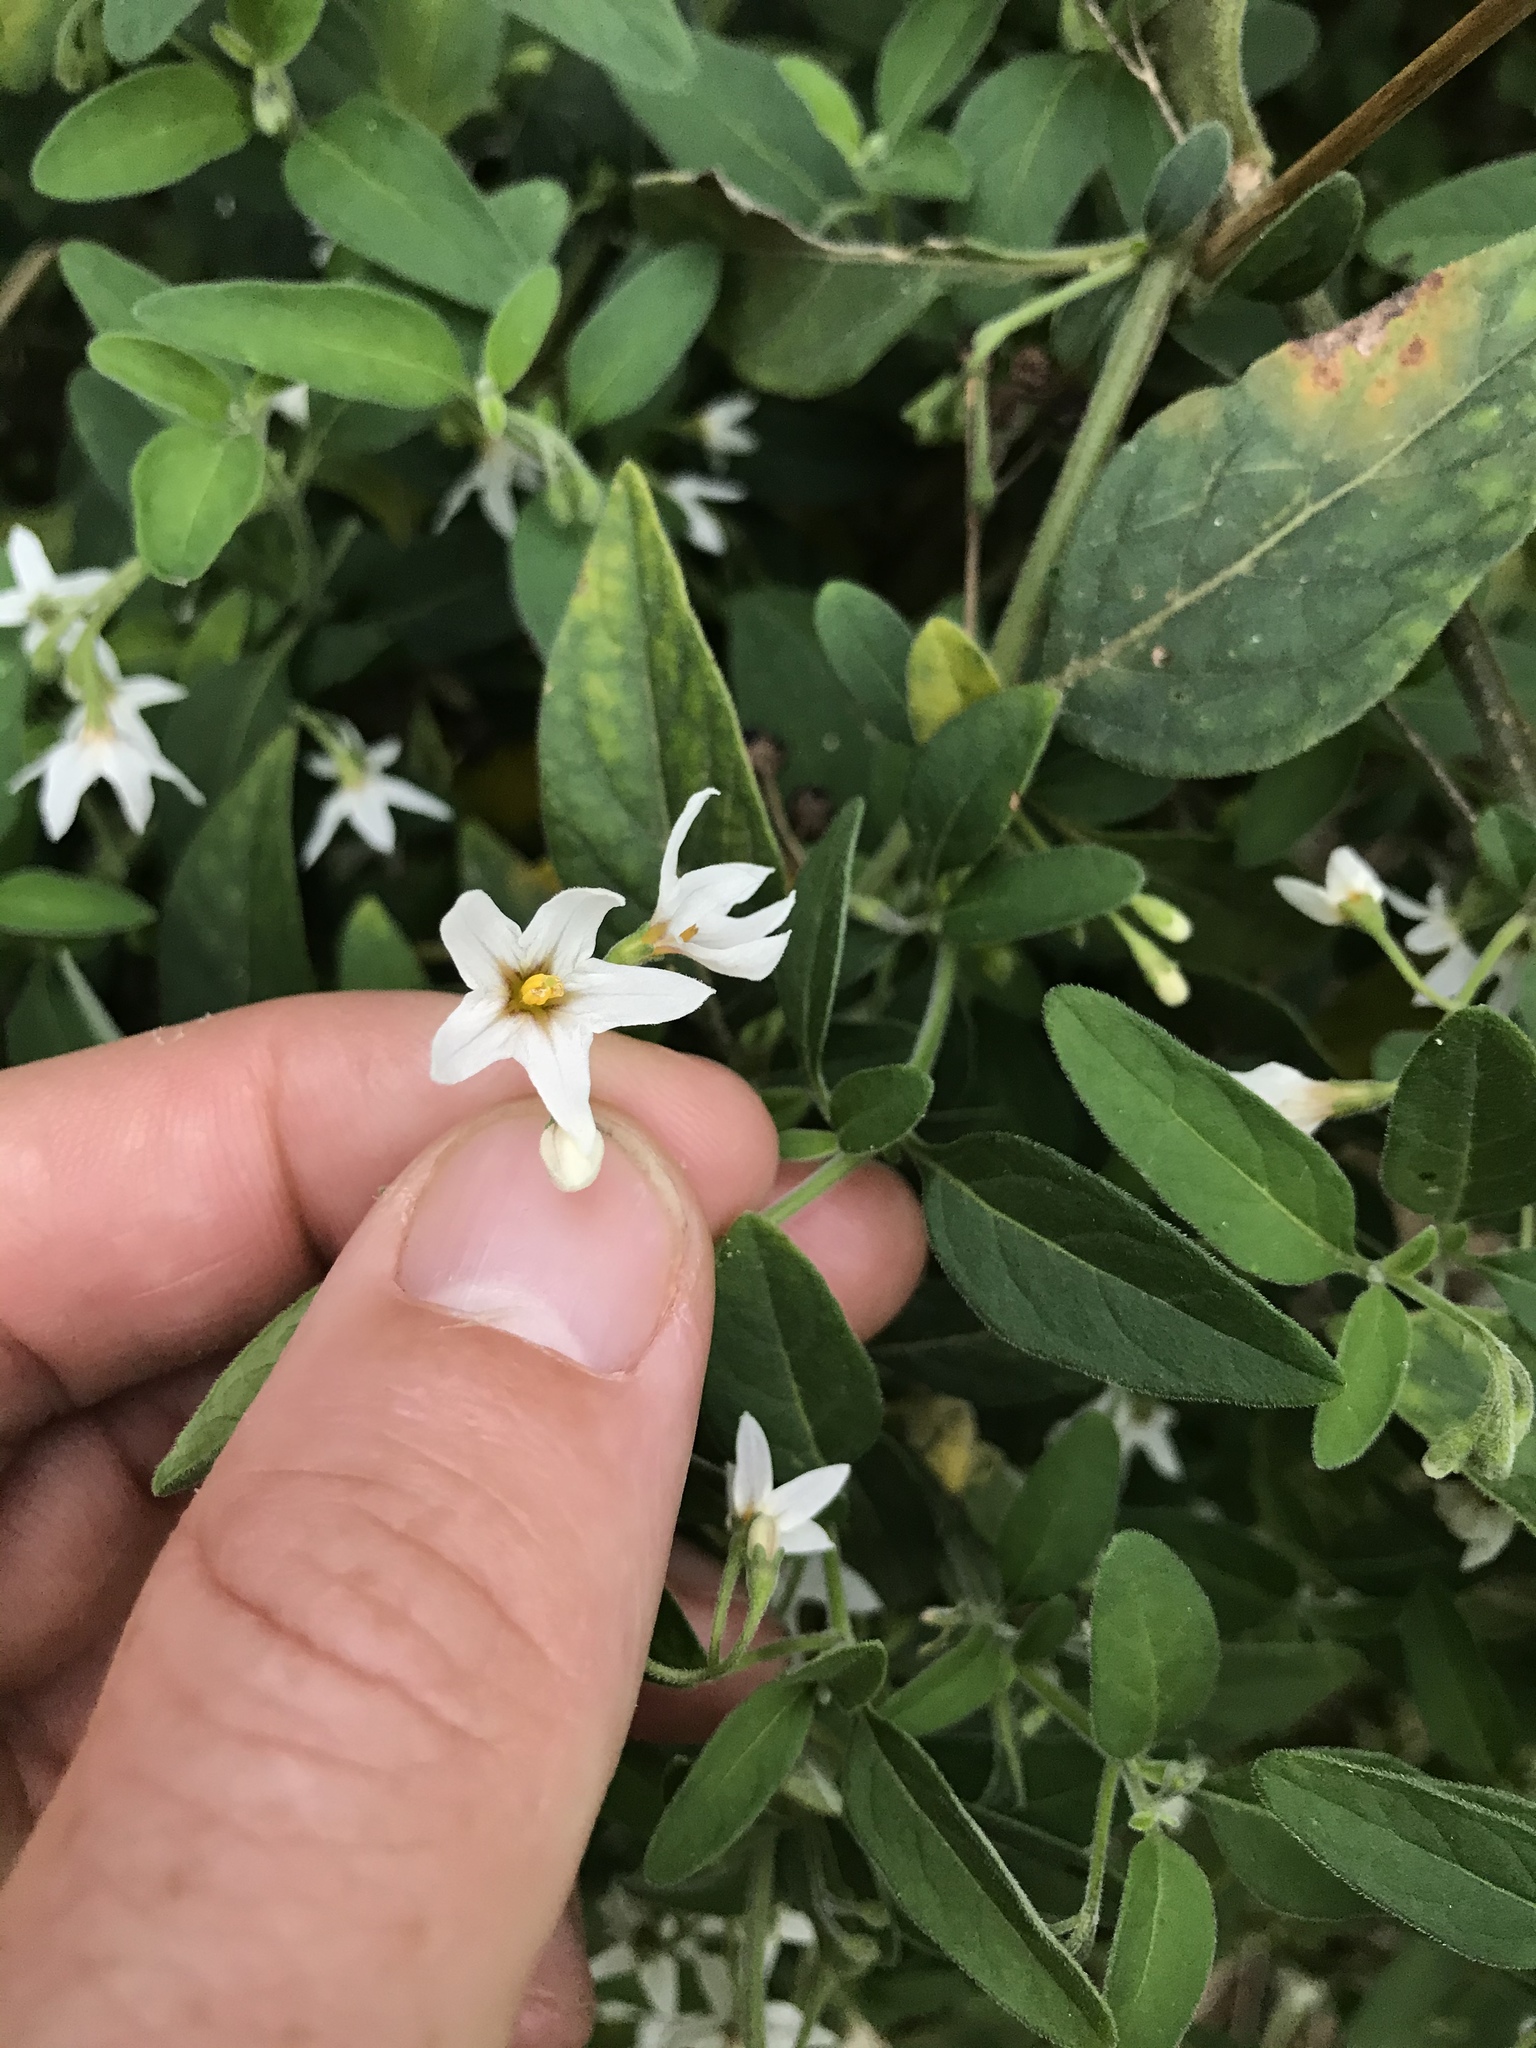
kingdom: Plantae
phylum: Tracheophyta
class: Magnoliopsida
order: Solanales
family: Solanaceae
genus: Solanum
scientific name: Solanum chenopodioides
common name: Tall nightshade
